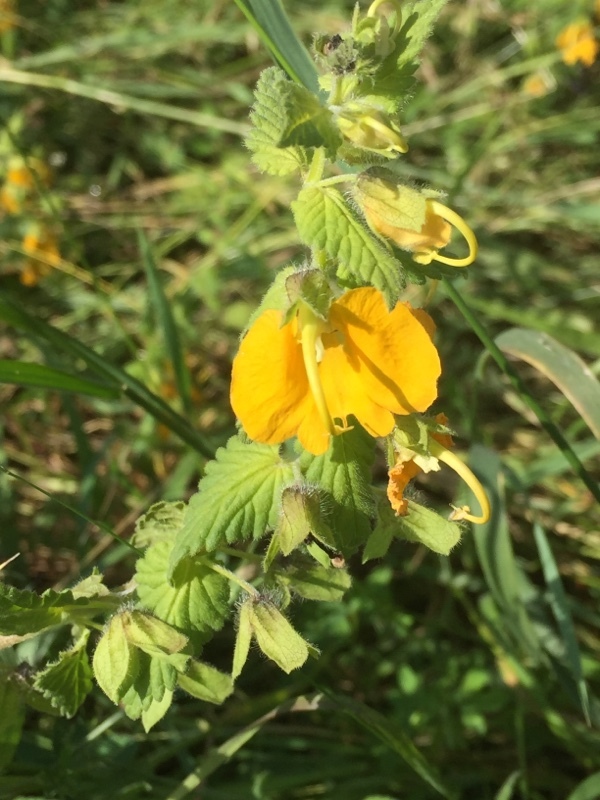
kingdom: Plantae
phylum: Tracheophyta
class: Magnoliopsida
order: Lamiales
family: Orobanchaceae
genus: Rhynchocorys
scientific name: Rhynchocorys orientalis
